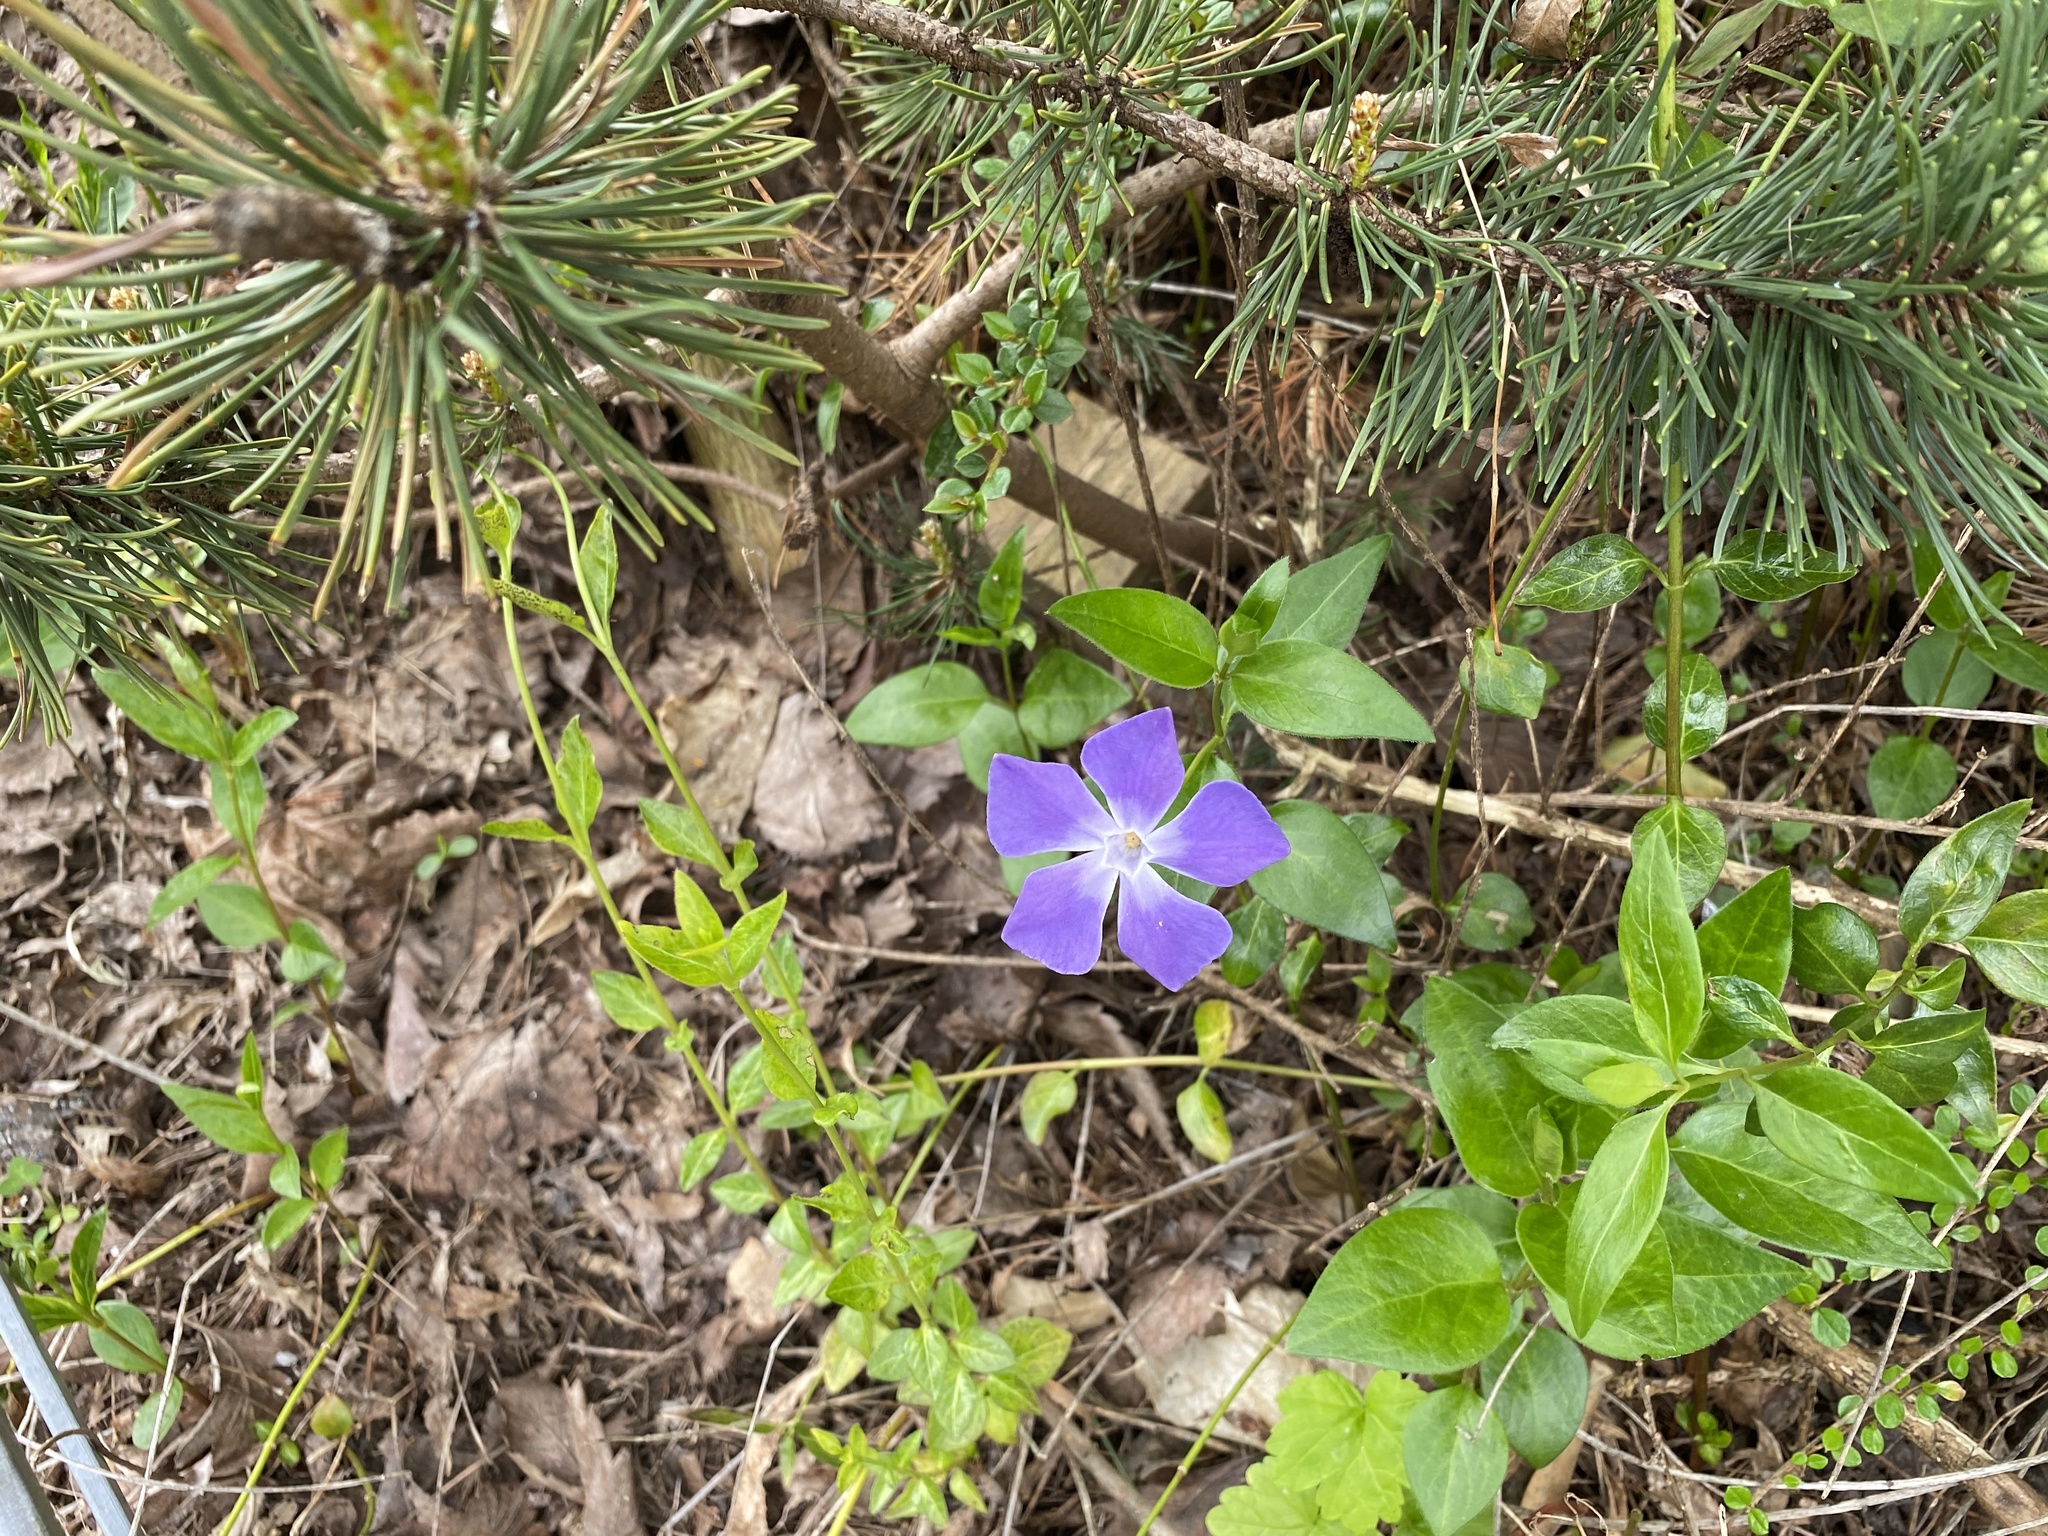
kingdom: Plantae
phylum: Tracheophyta
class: Magnoliopsida
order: Gentianales
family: Apocynaceae
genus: Vinca
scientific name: Vinca major
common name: Greater periwinkle
